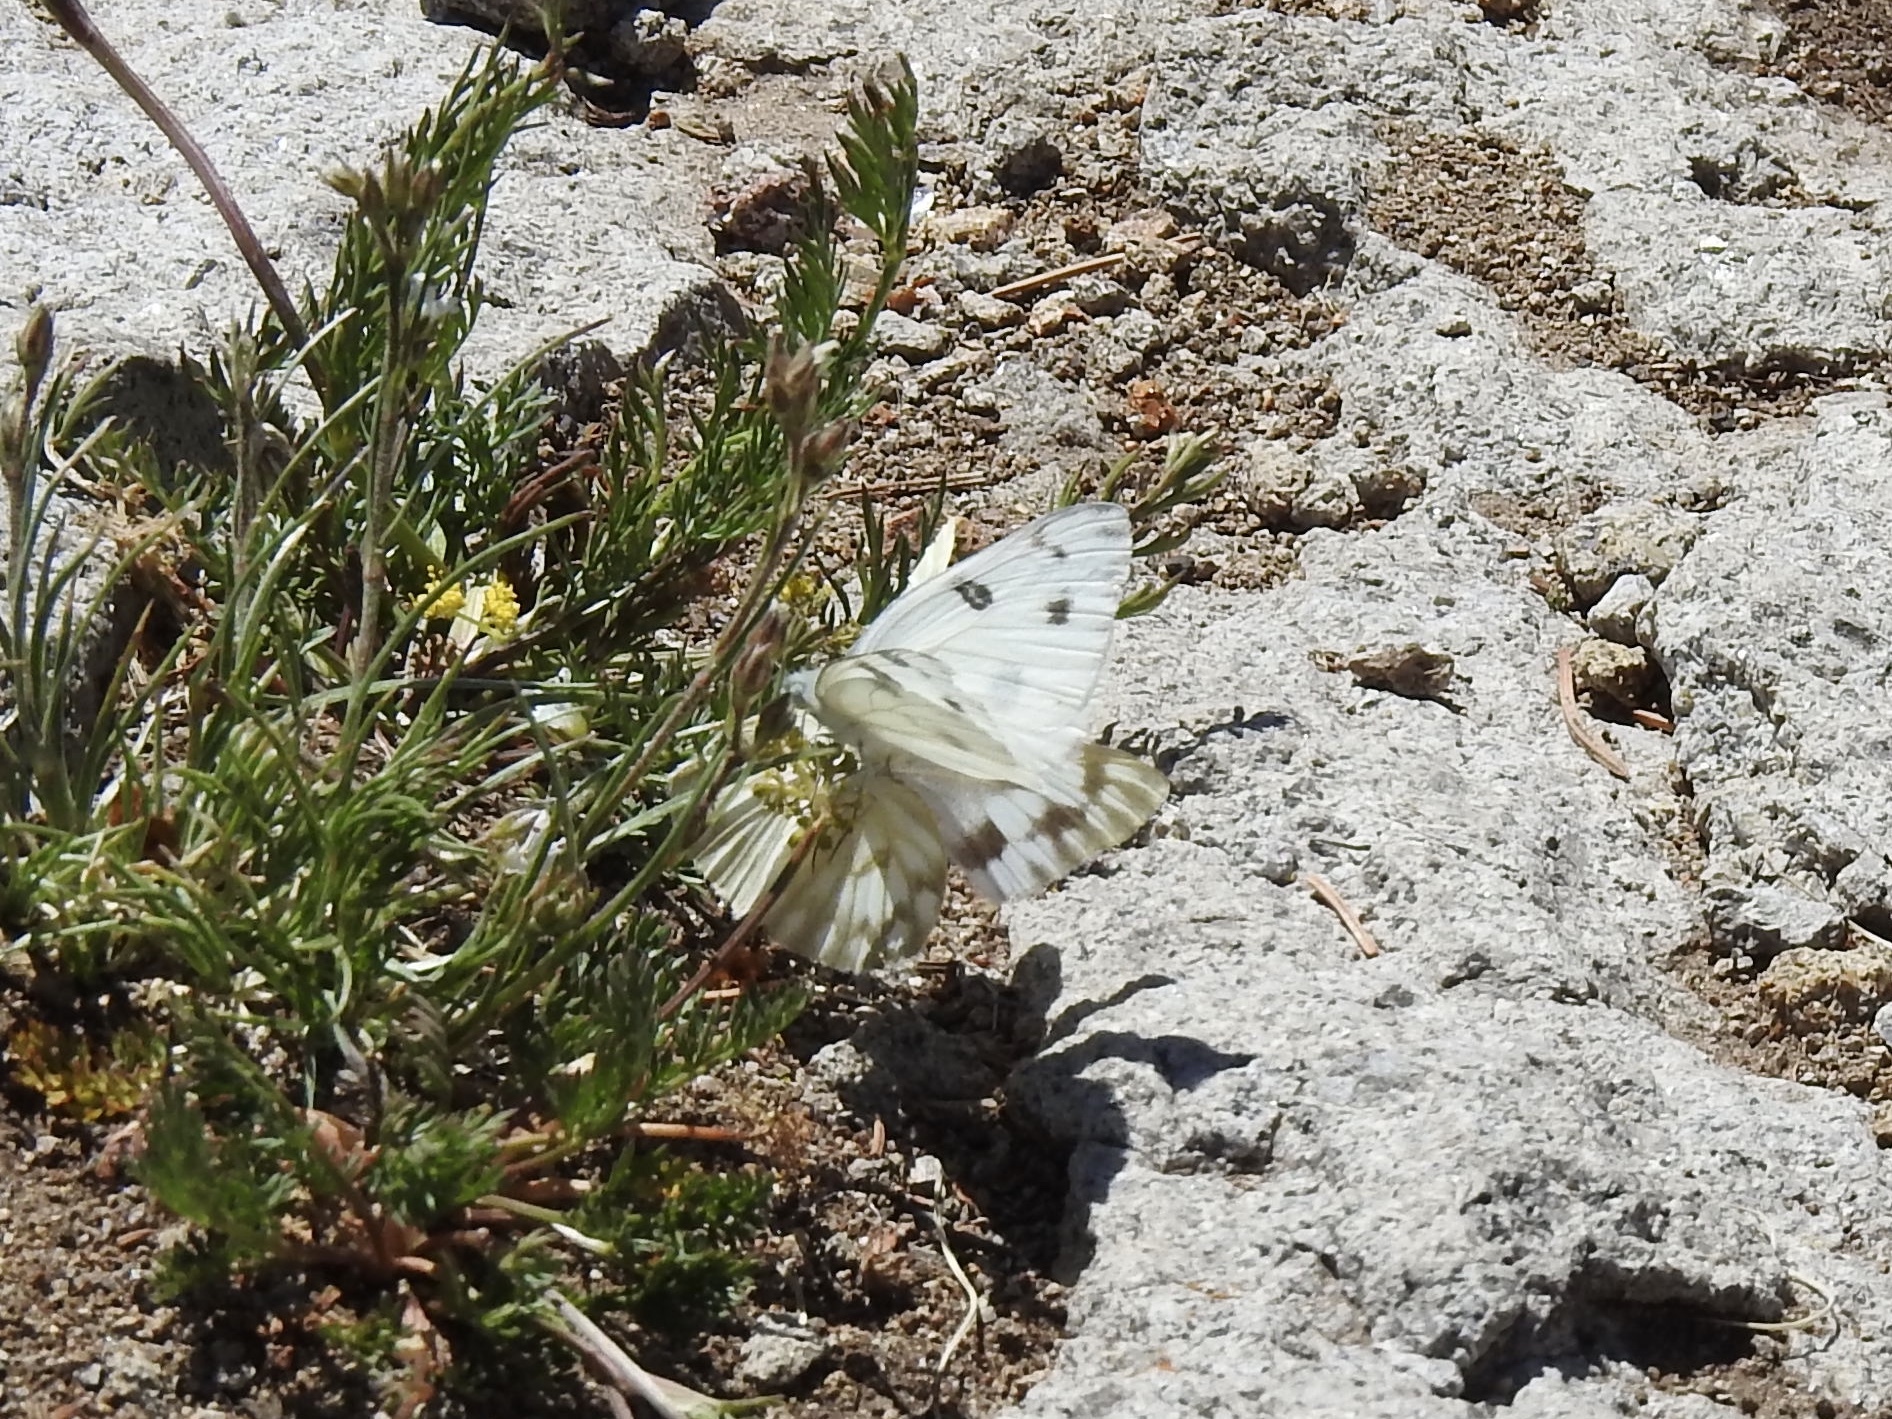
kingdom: Animalia
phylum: Arthropoda
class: Insecta
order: Lepidoptera
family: Pieridae
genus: Pontia
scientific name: Pontia protodice
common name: Checkered white
